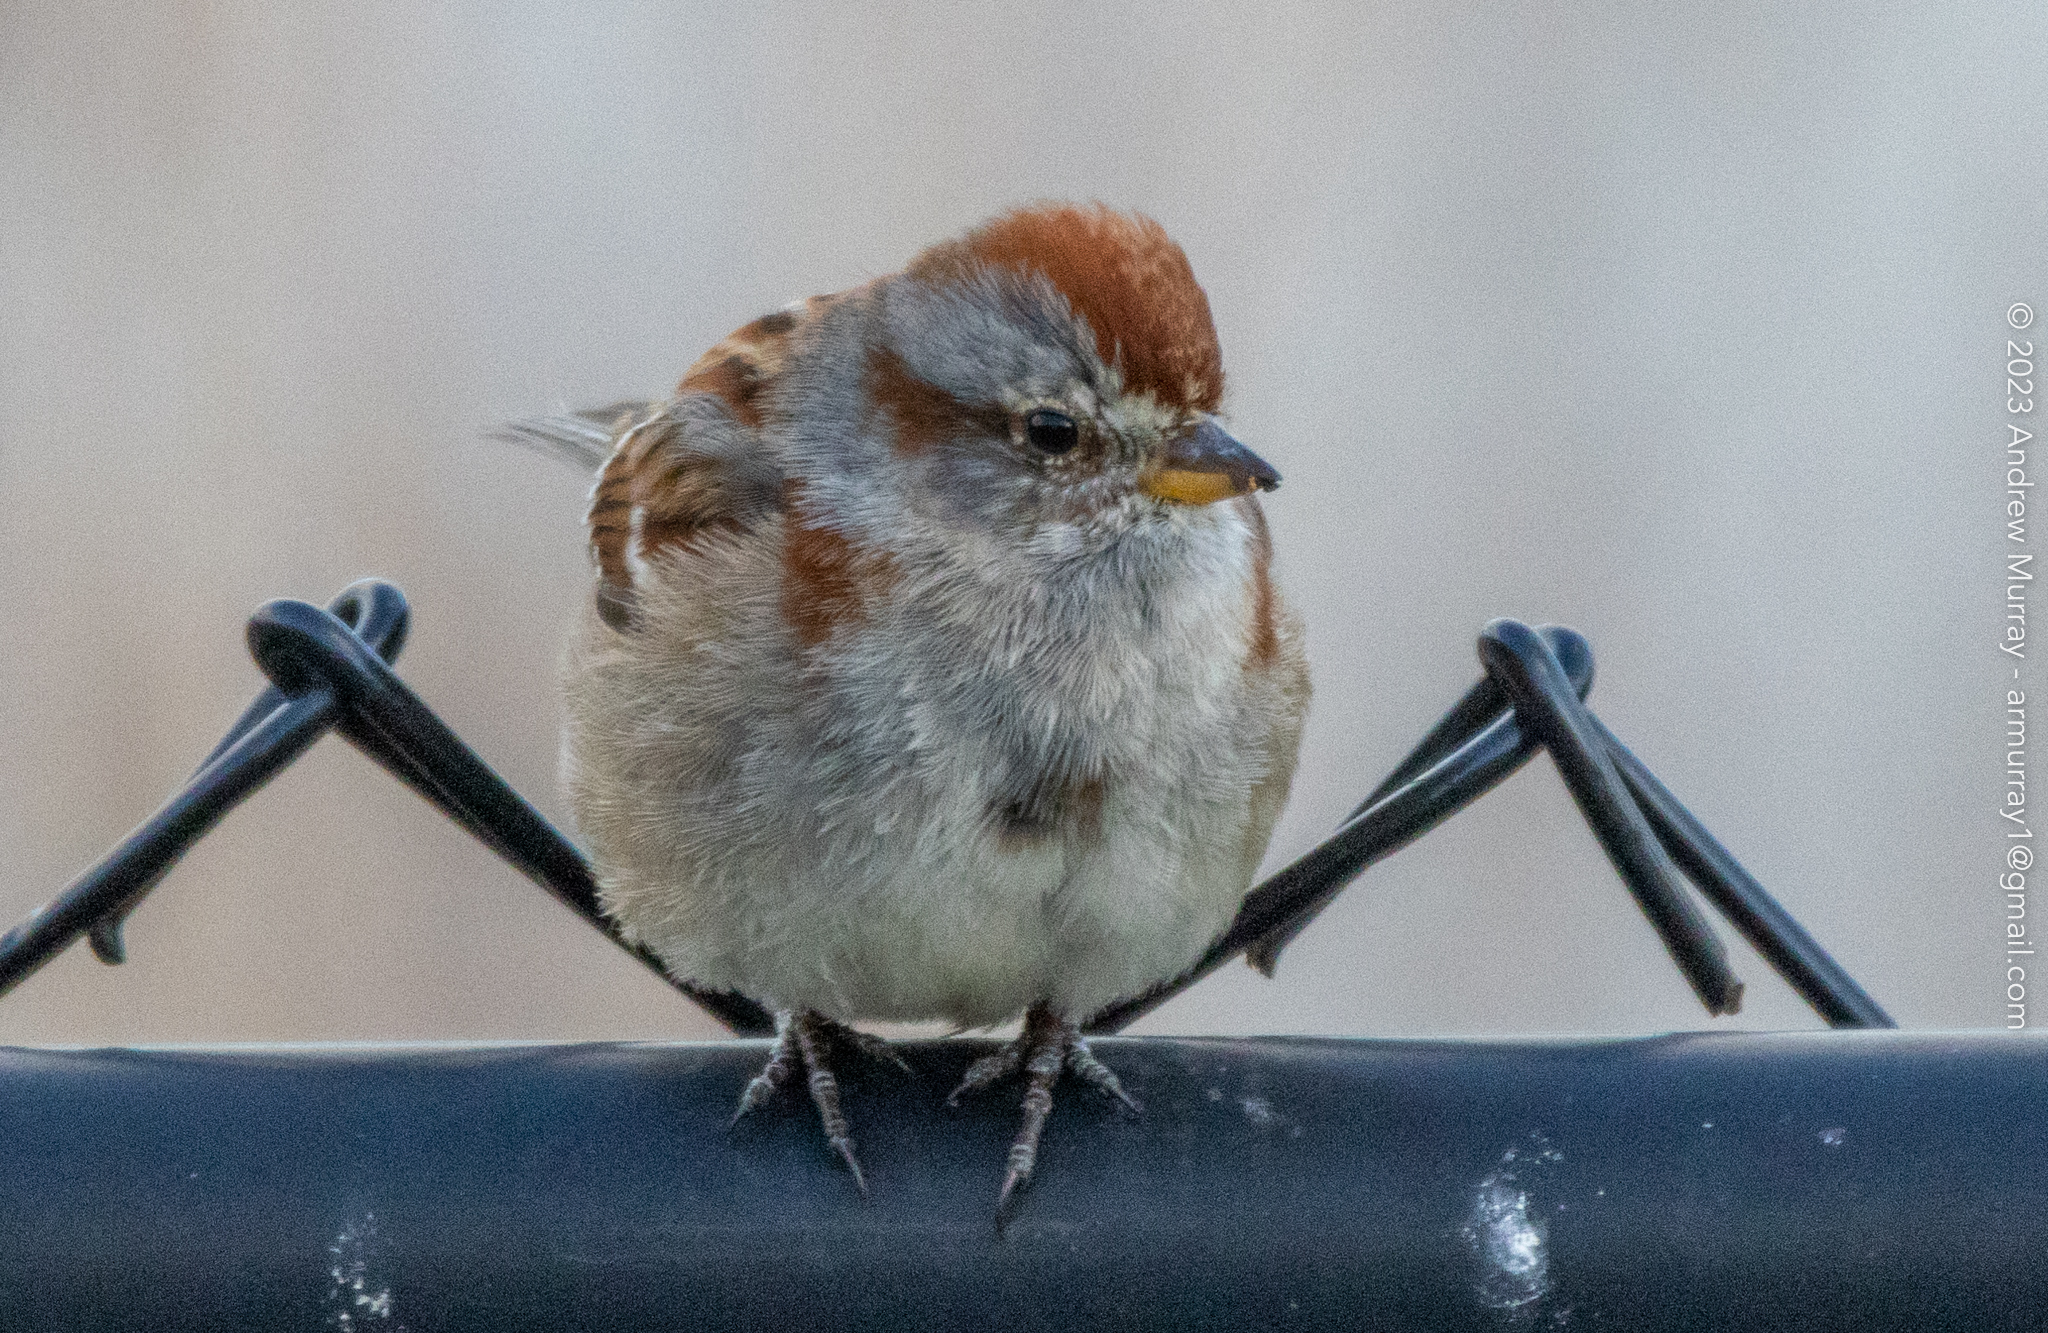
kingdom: Animalia
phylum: Chordata
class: Aves
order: Passeriformes
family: Passerellidae
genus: Spizelloides
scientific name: Spizelloides arborea
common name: American tree sparrow
